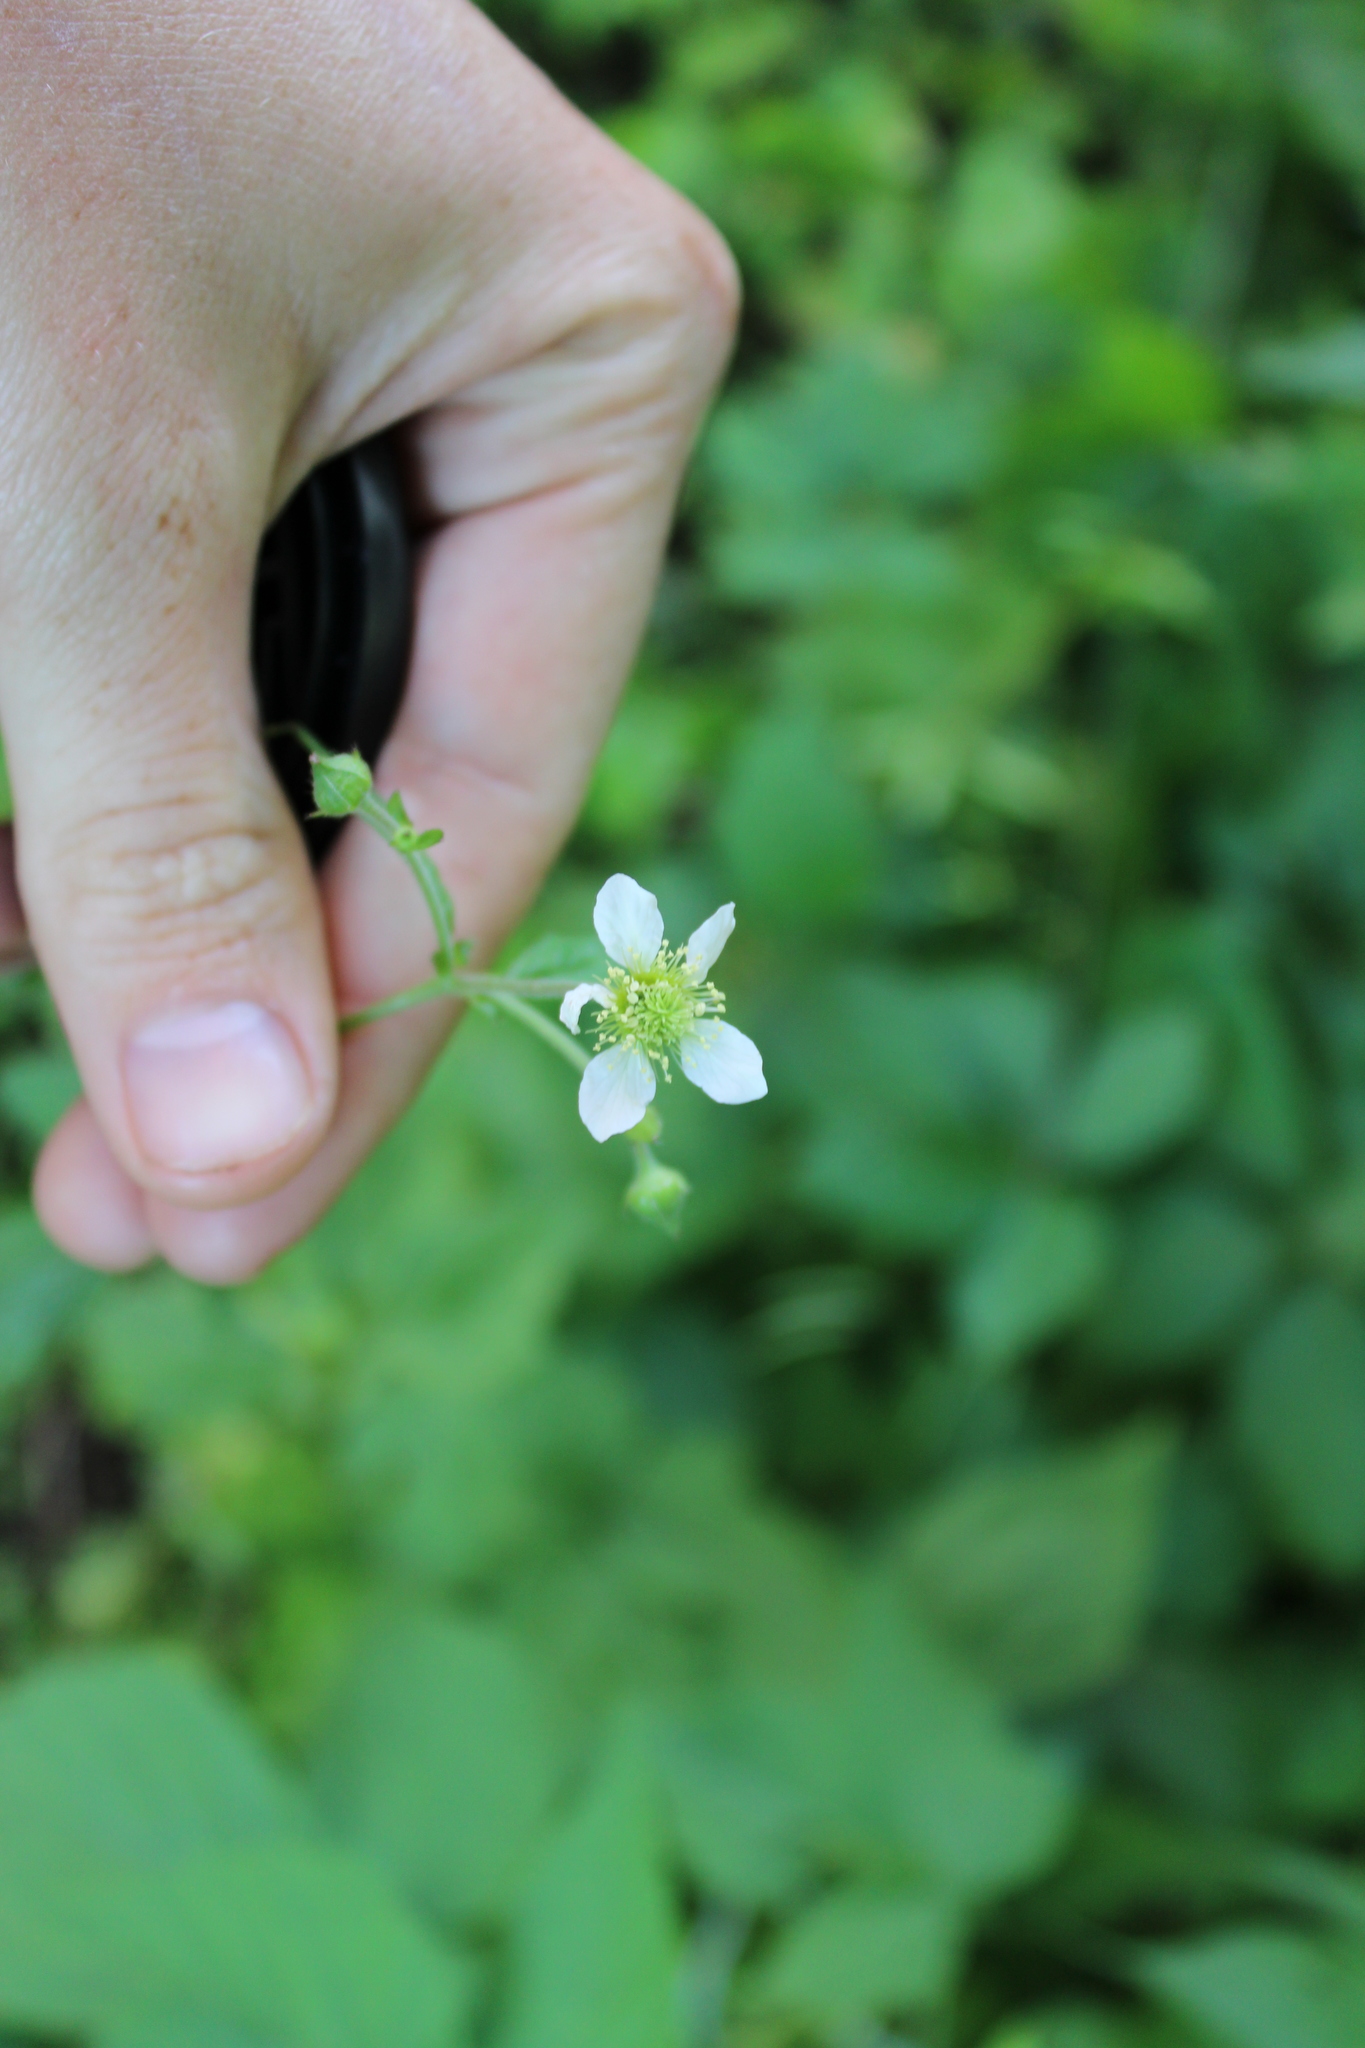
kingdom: Plantae
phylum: Tracheophyta
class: Magnoliopsida
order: Rosales
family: Rosaceae
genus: Geum
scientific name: Geum canadense
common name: White avens
